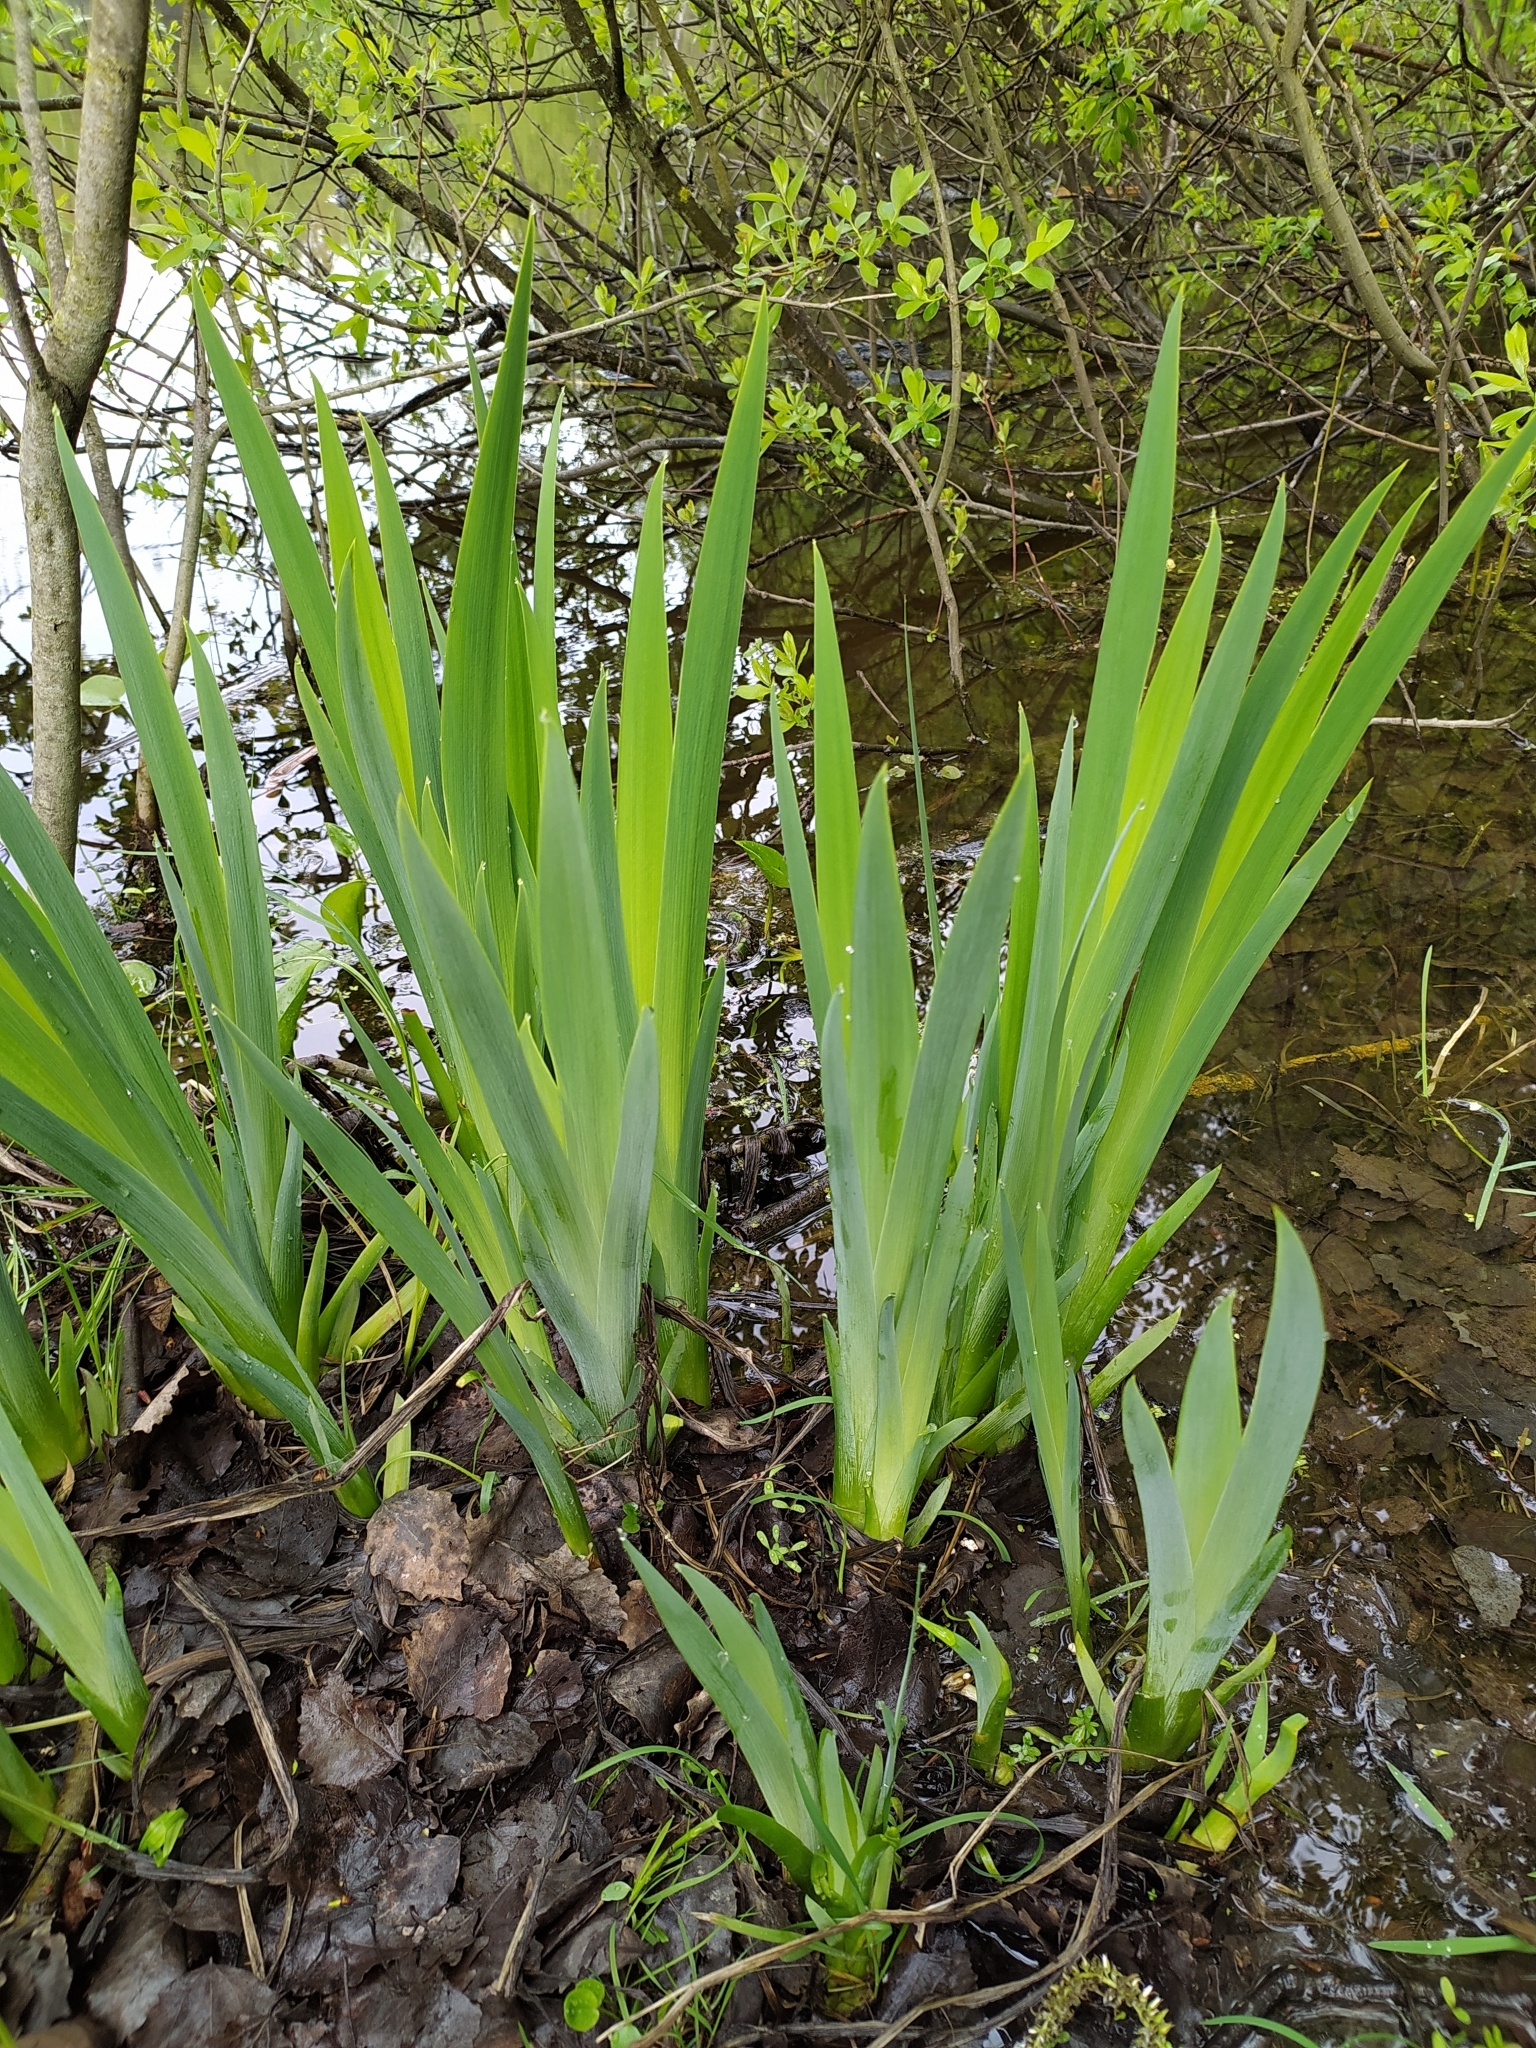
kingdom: Plantae
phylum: Tracheophyta
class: Liliopsida
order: Asparagales
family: Iridaceae
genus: Iris
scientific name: Iris pseudacorus
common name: Yellow flag
